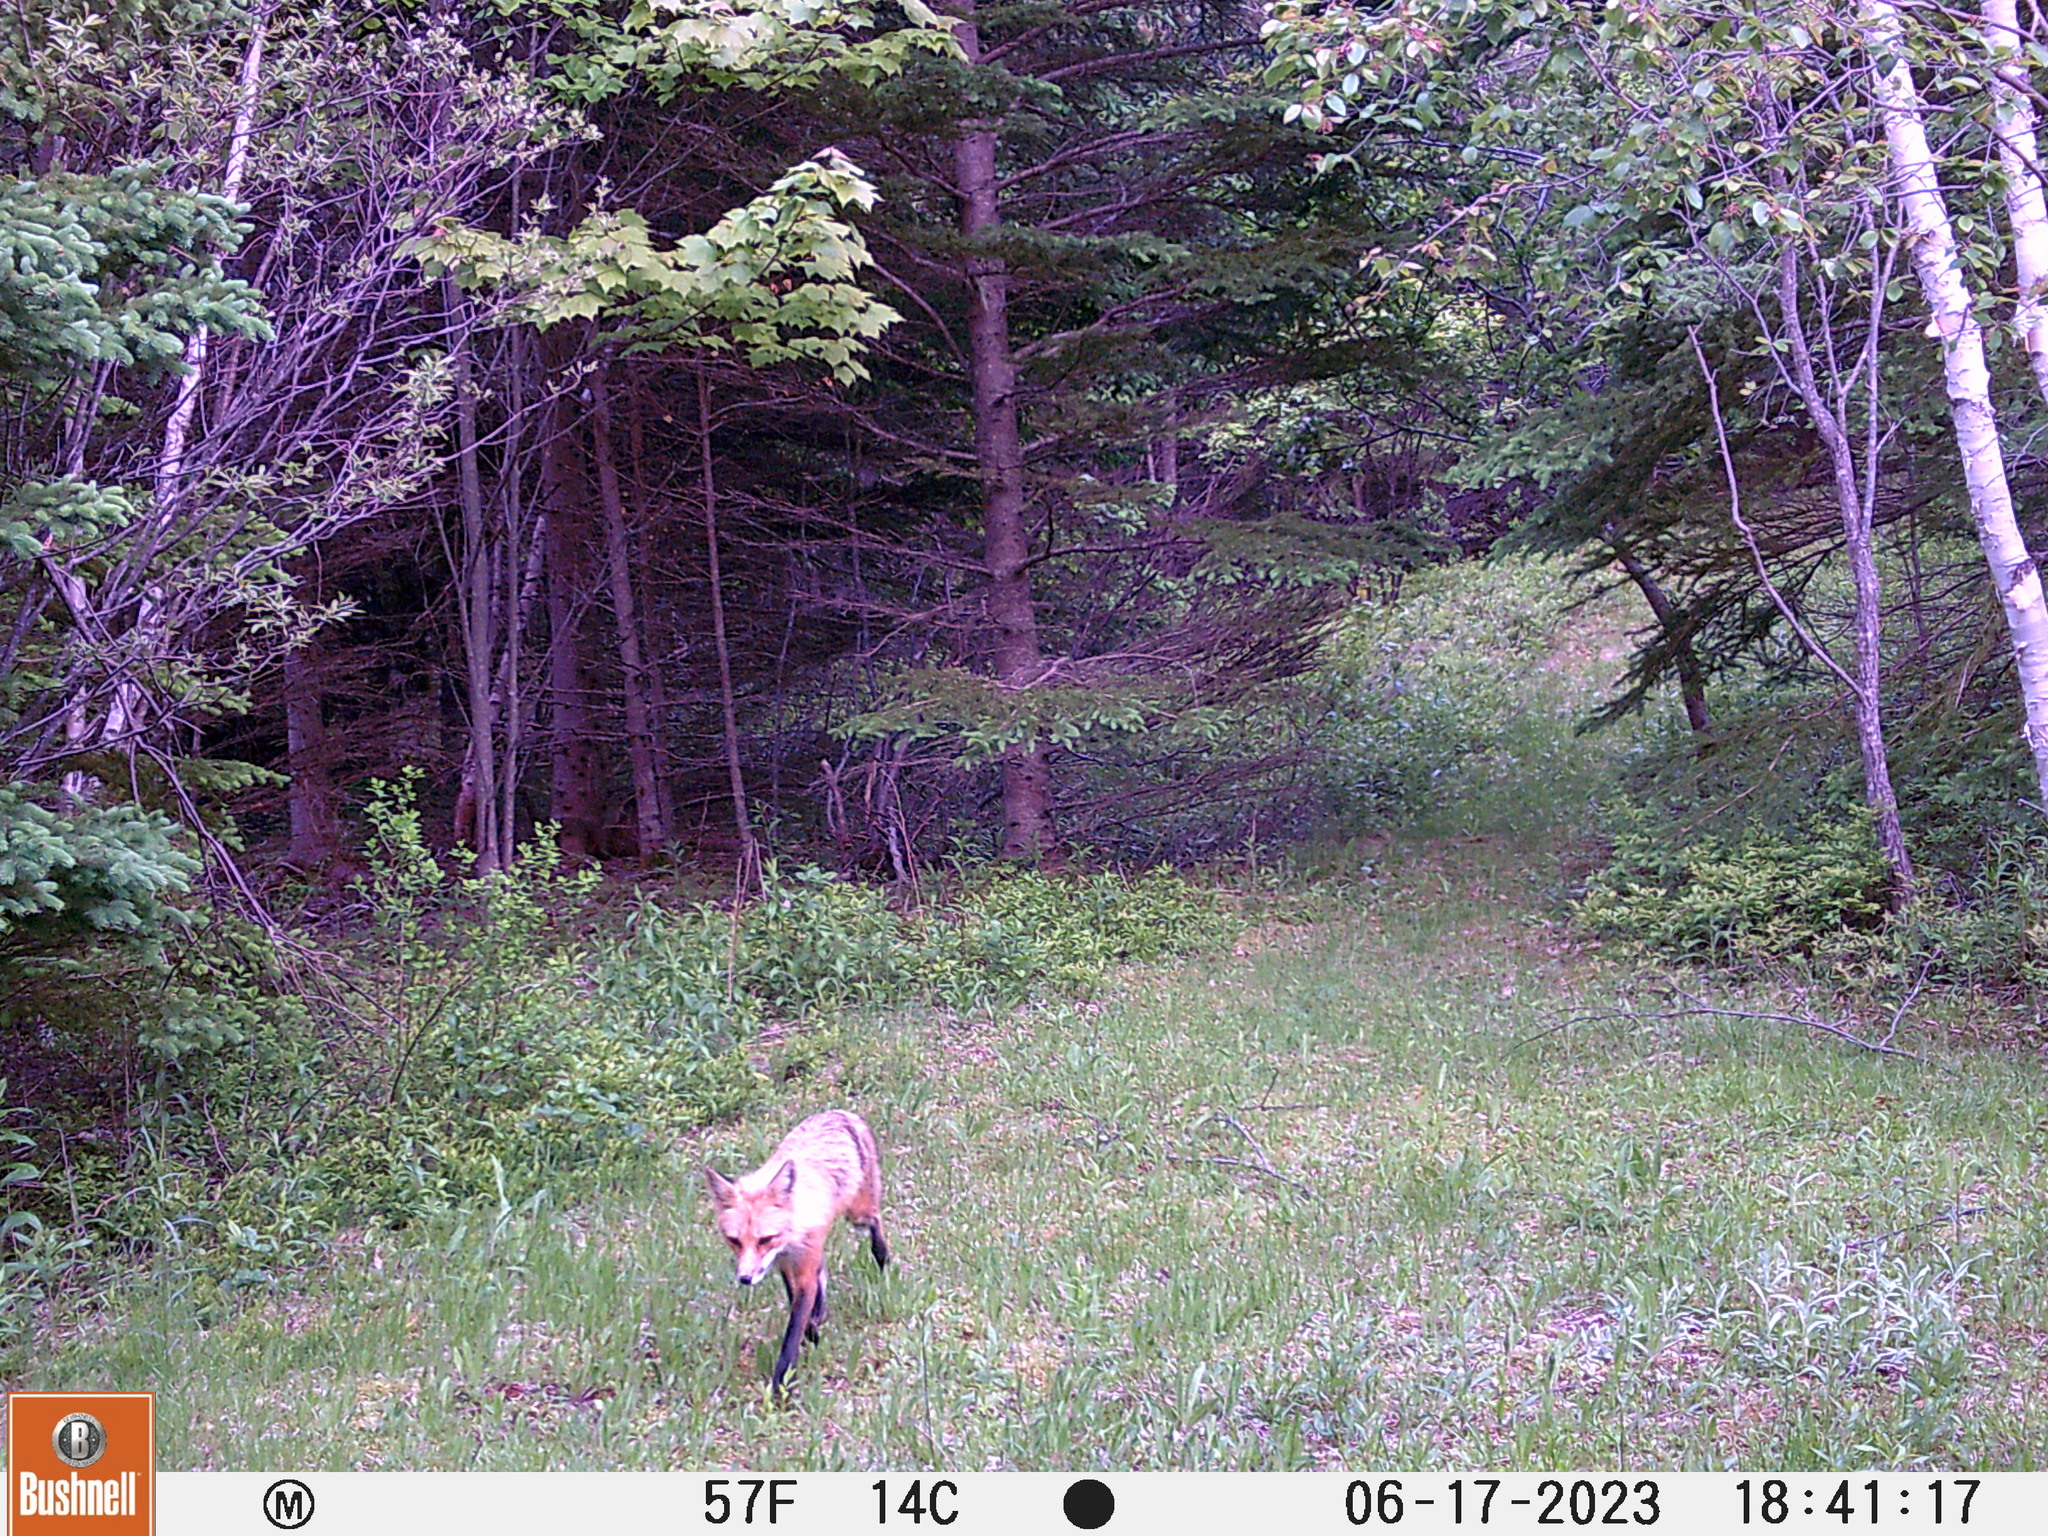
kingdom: Animalia
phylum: Chordata
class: Mammalia
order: Carnivora
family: Canidae
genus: Vulpes
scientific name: Vulpes vulpes
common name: Red fox
